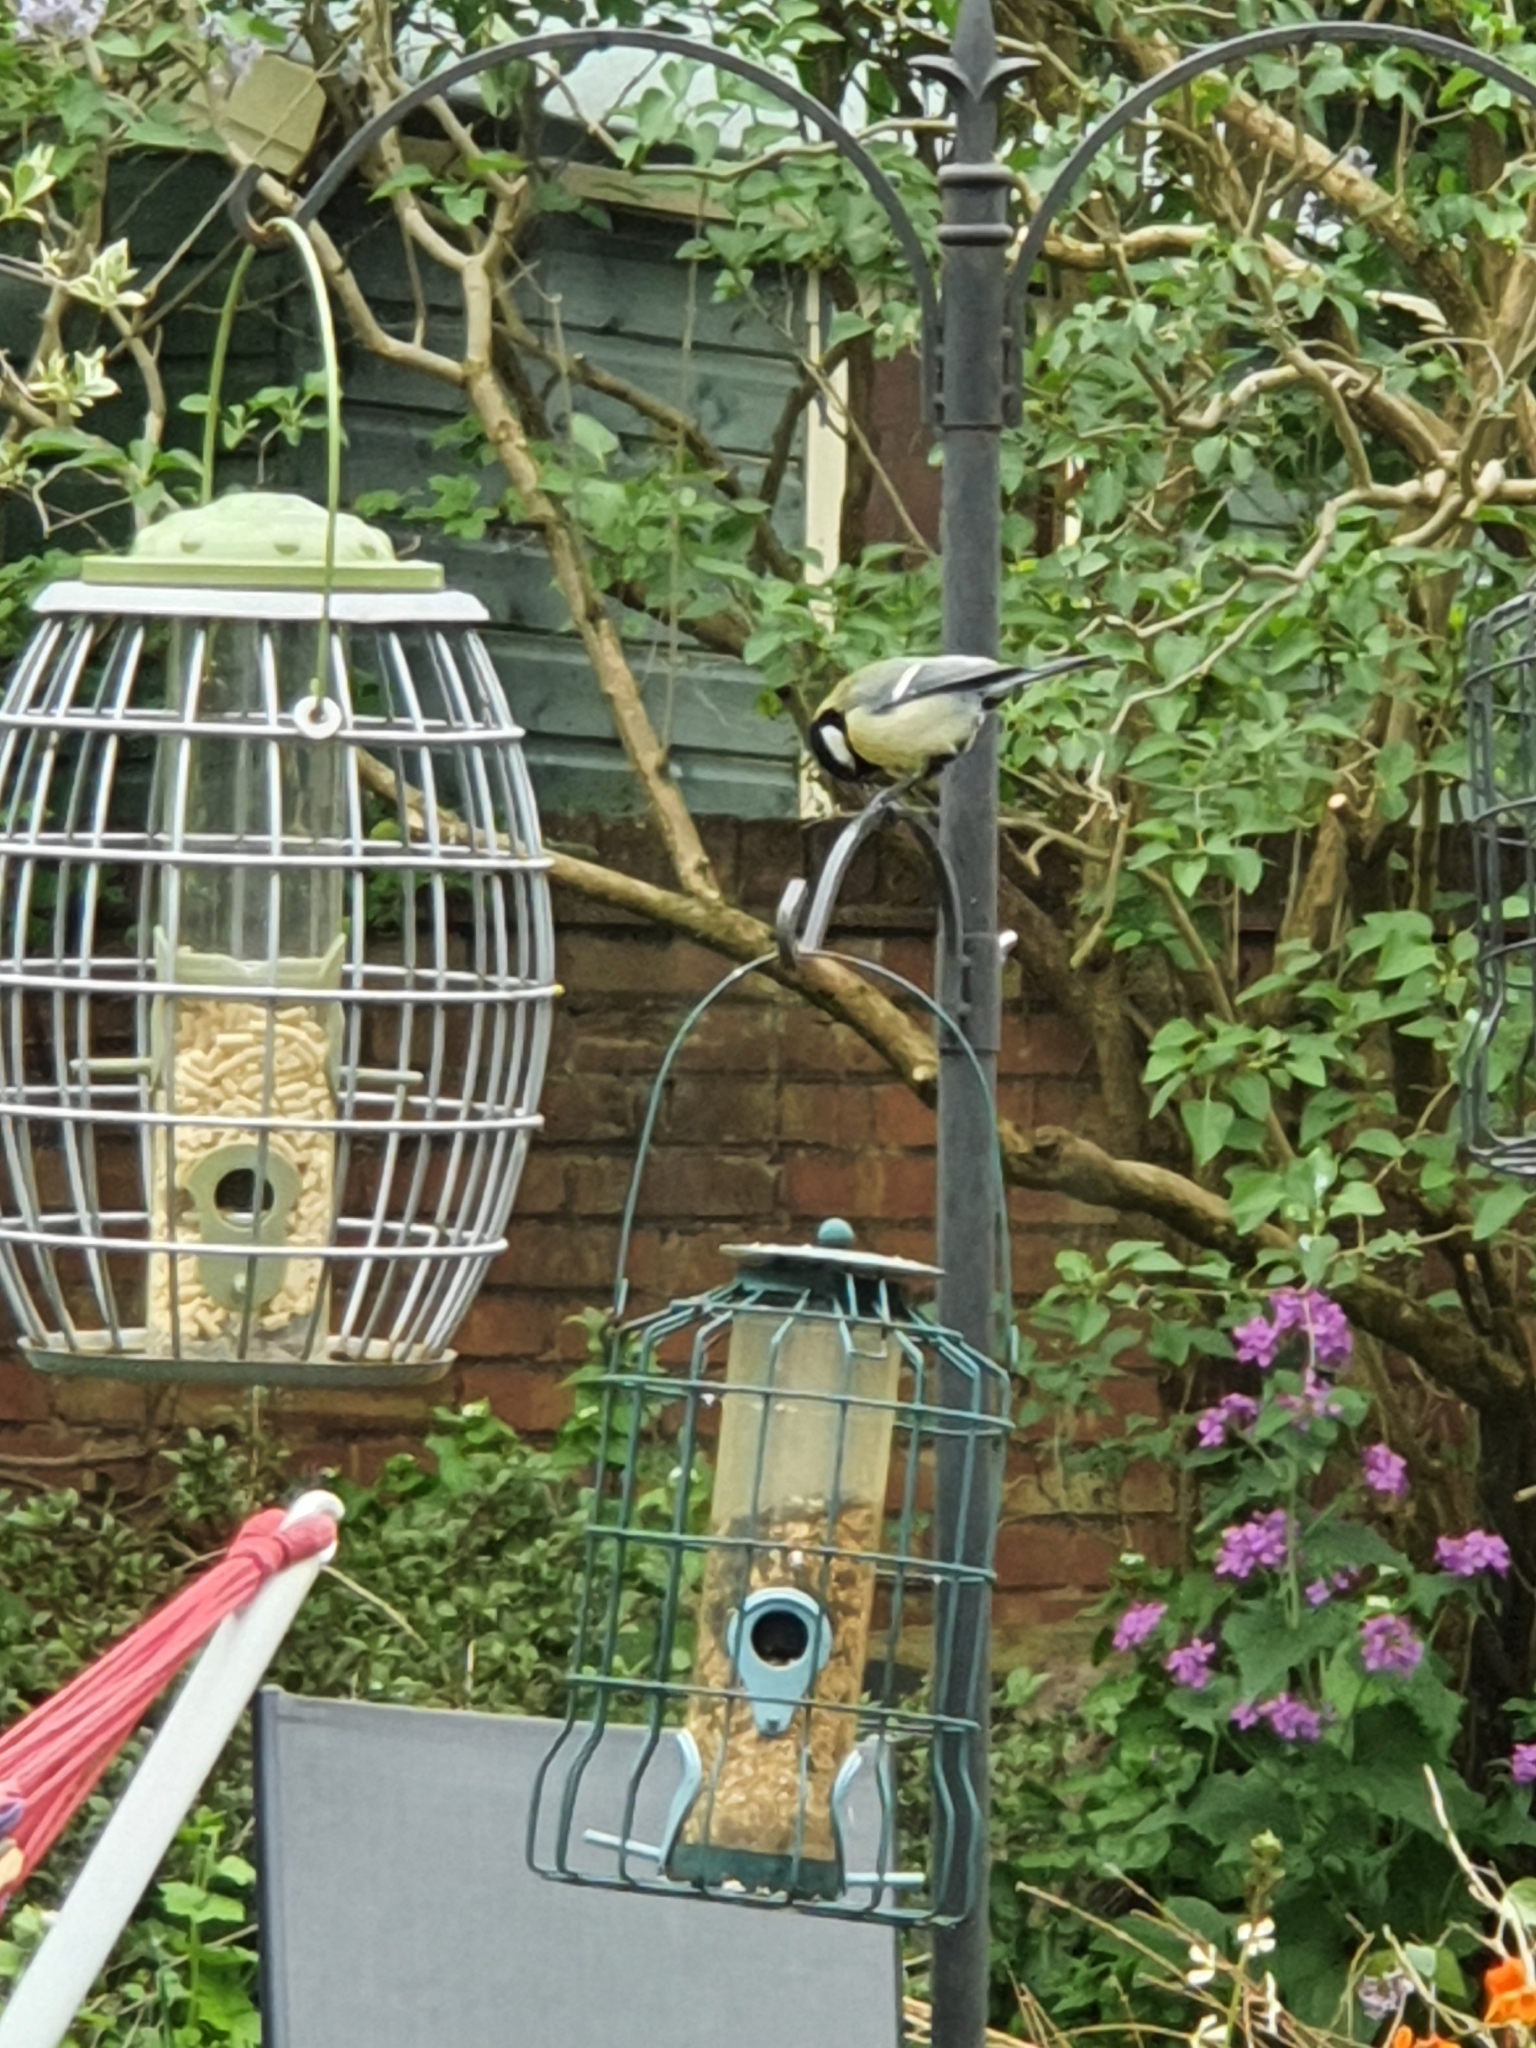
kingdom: Animalia
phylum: Chordata
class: Aves
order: Passeriformes
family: Paridae
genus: Parus
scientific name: Parus major
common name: Great tit
